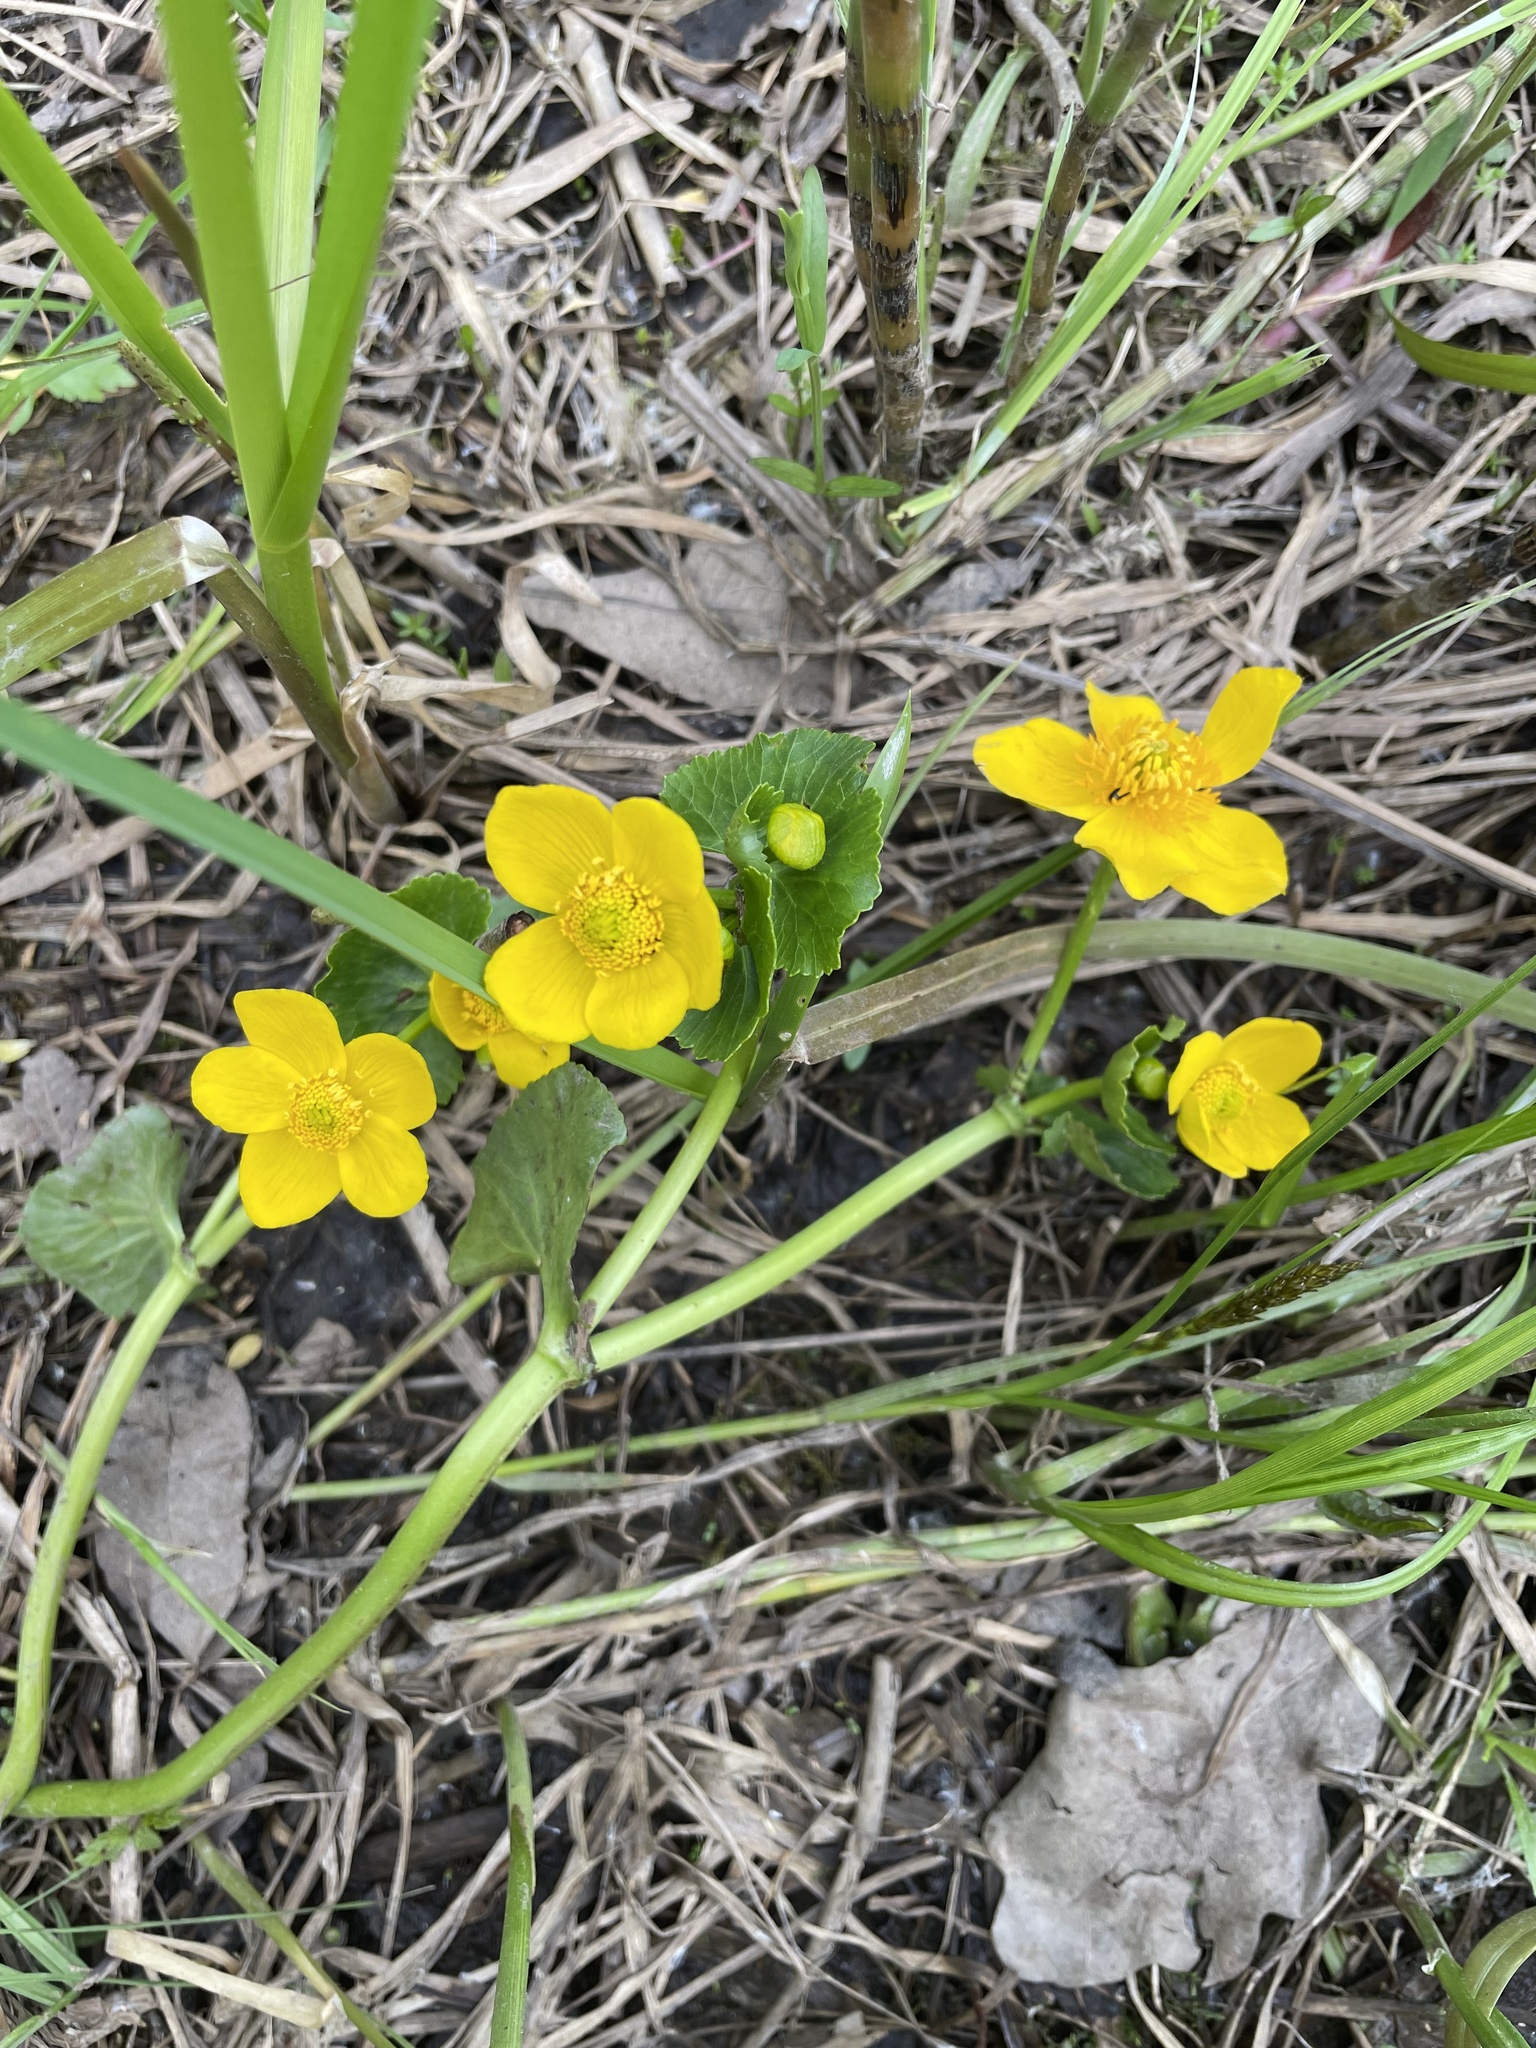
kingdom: Plantae
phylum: Tracheophyta
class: Magnoliopsida
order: Ranunculales
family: Ranunculaceae
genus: Caltha
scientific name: Caltha palustris
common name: Marsh marigold
